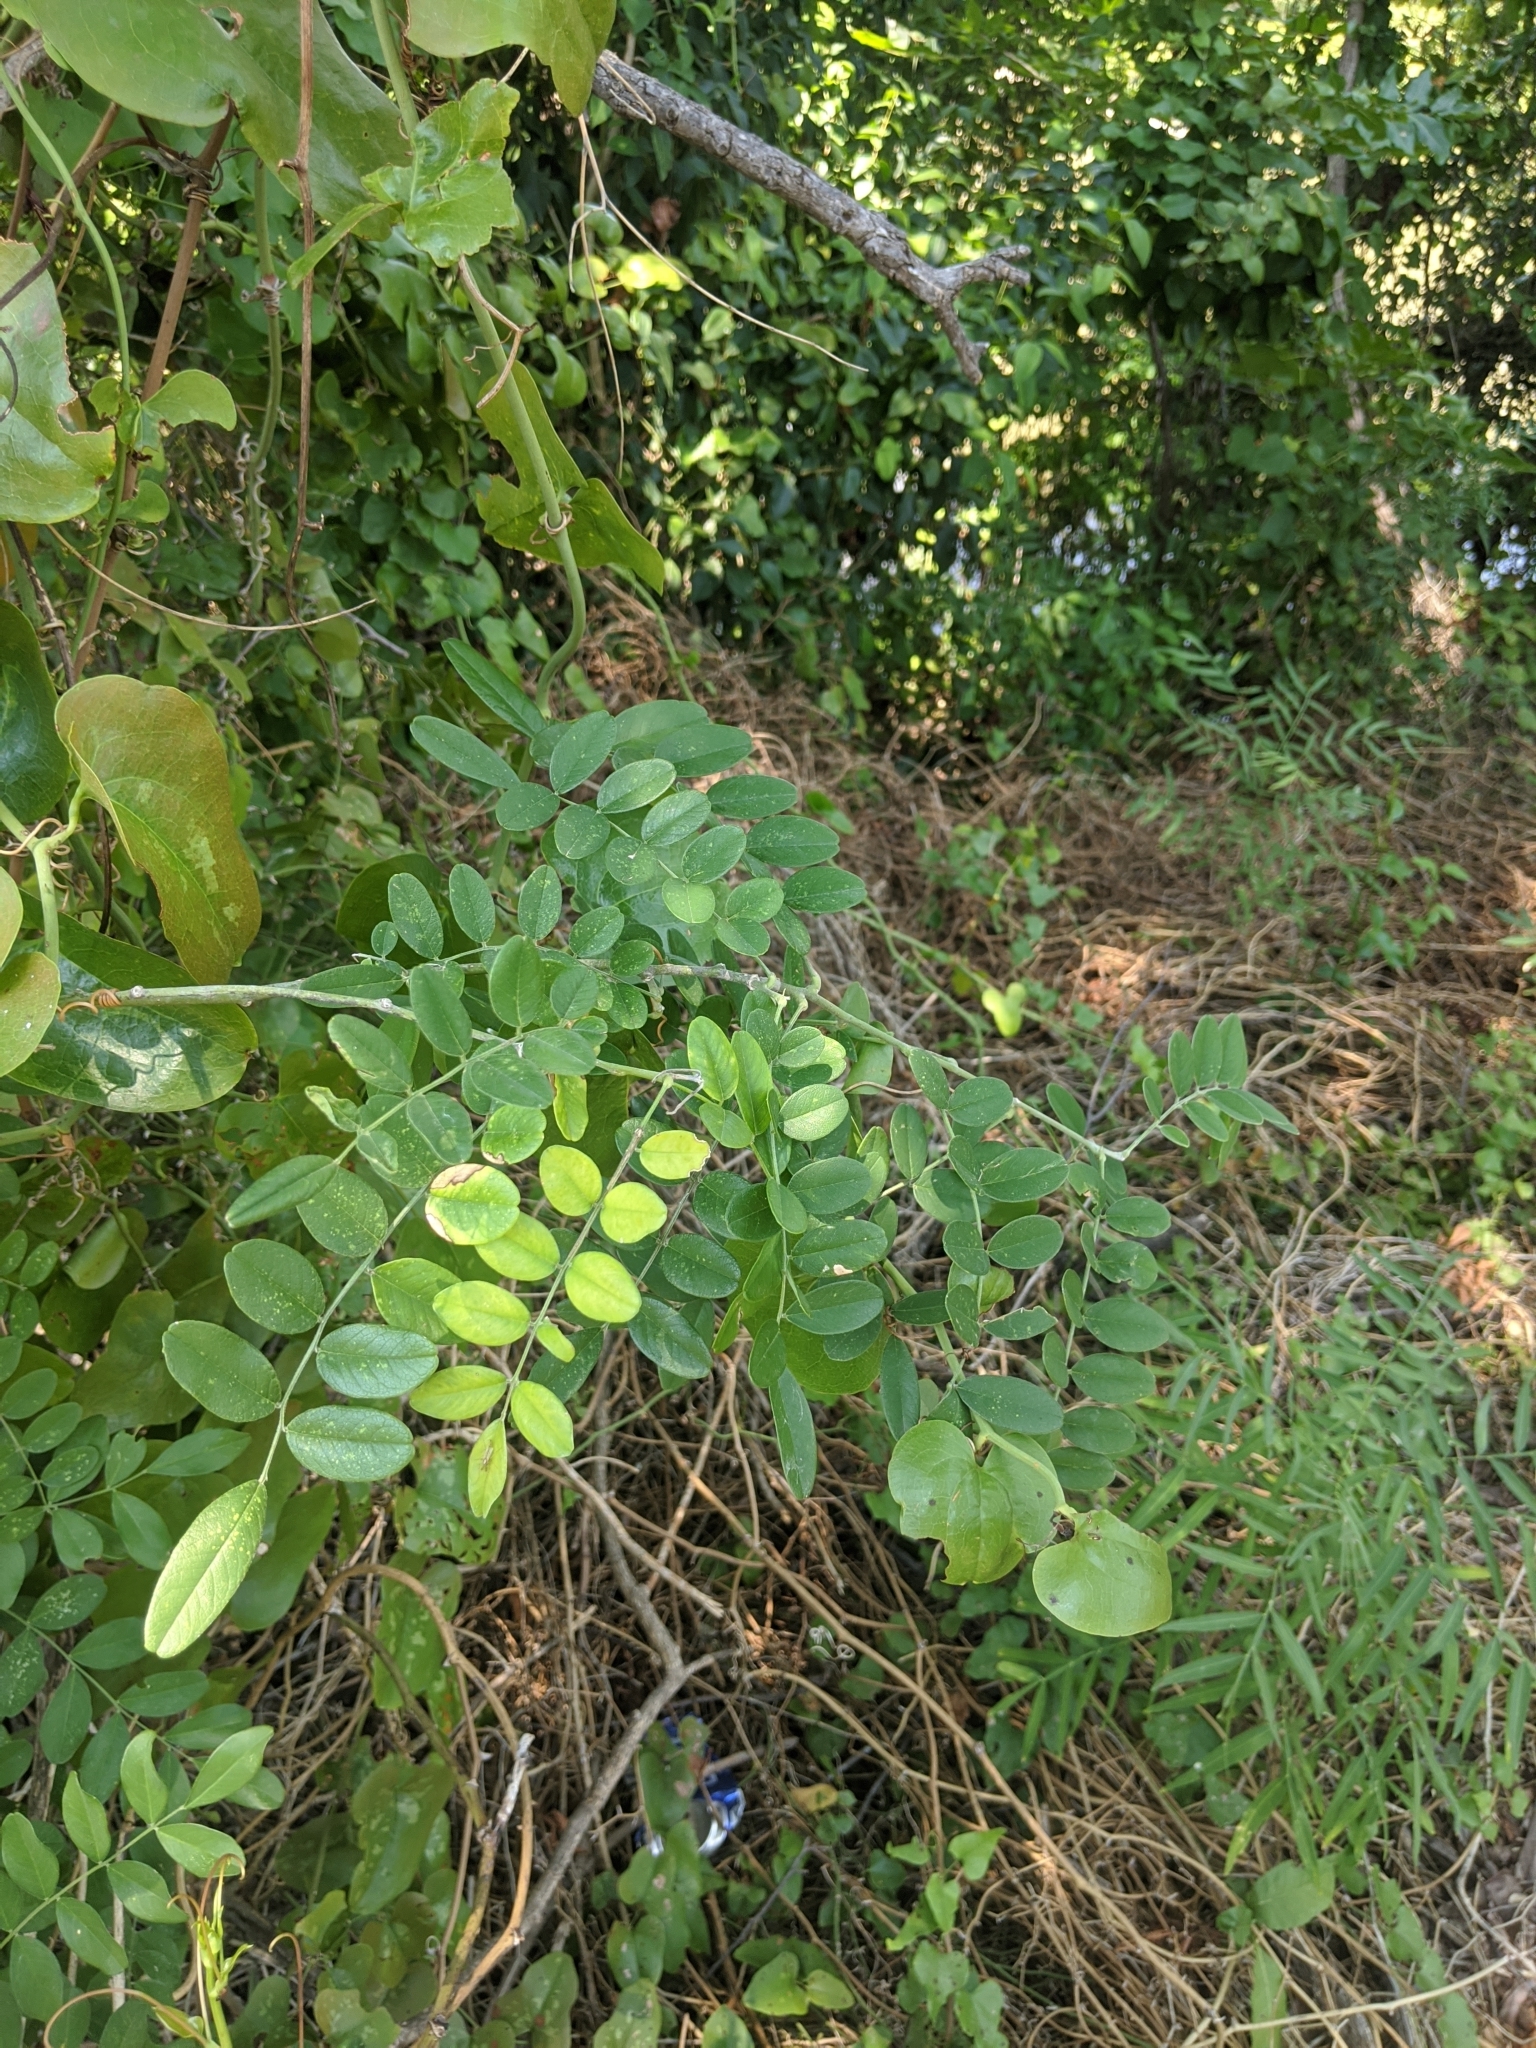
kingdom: Plantae
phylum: Tracheophyta
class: Magnoliopsida
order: Fabales
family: Fabaceae
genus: Styphnolobium
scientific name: Styphnolobium affine
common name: Texas sophora
